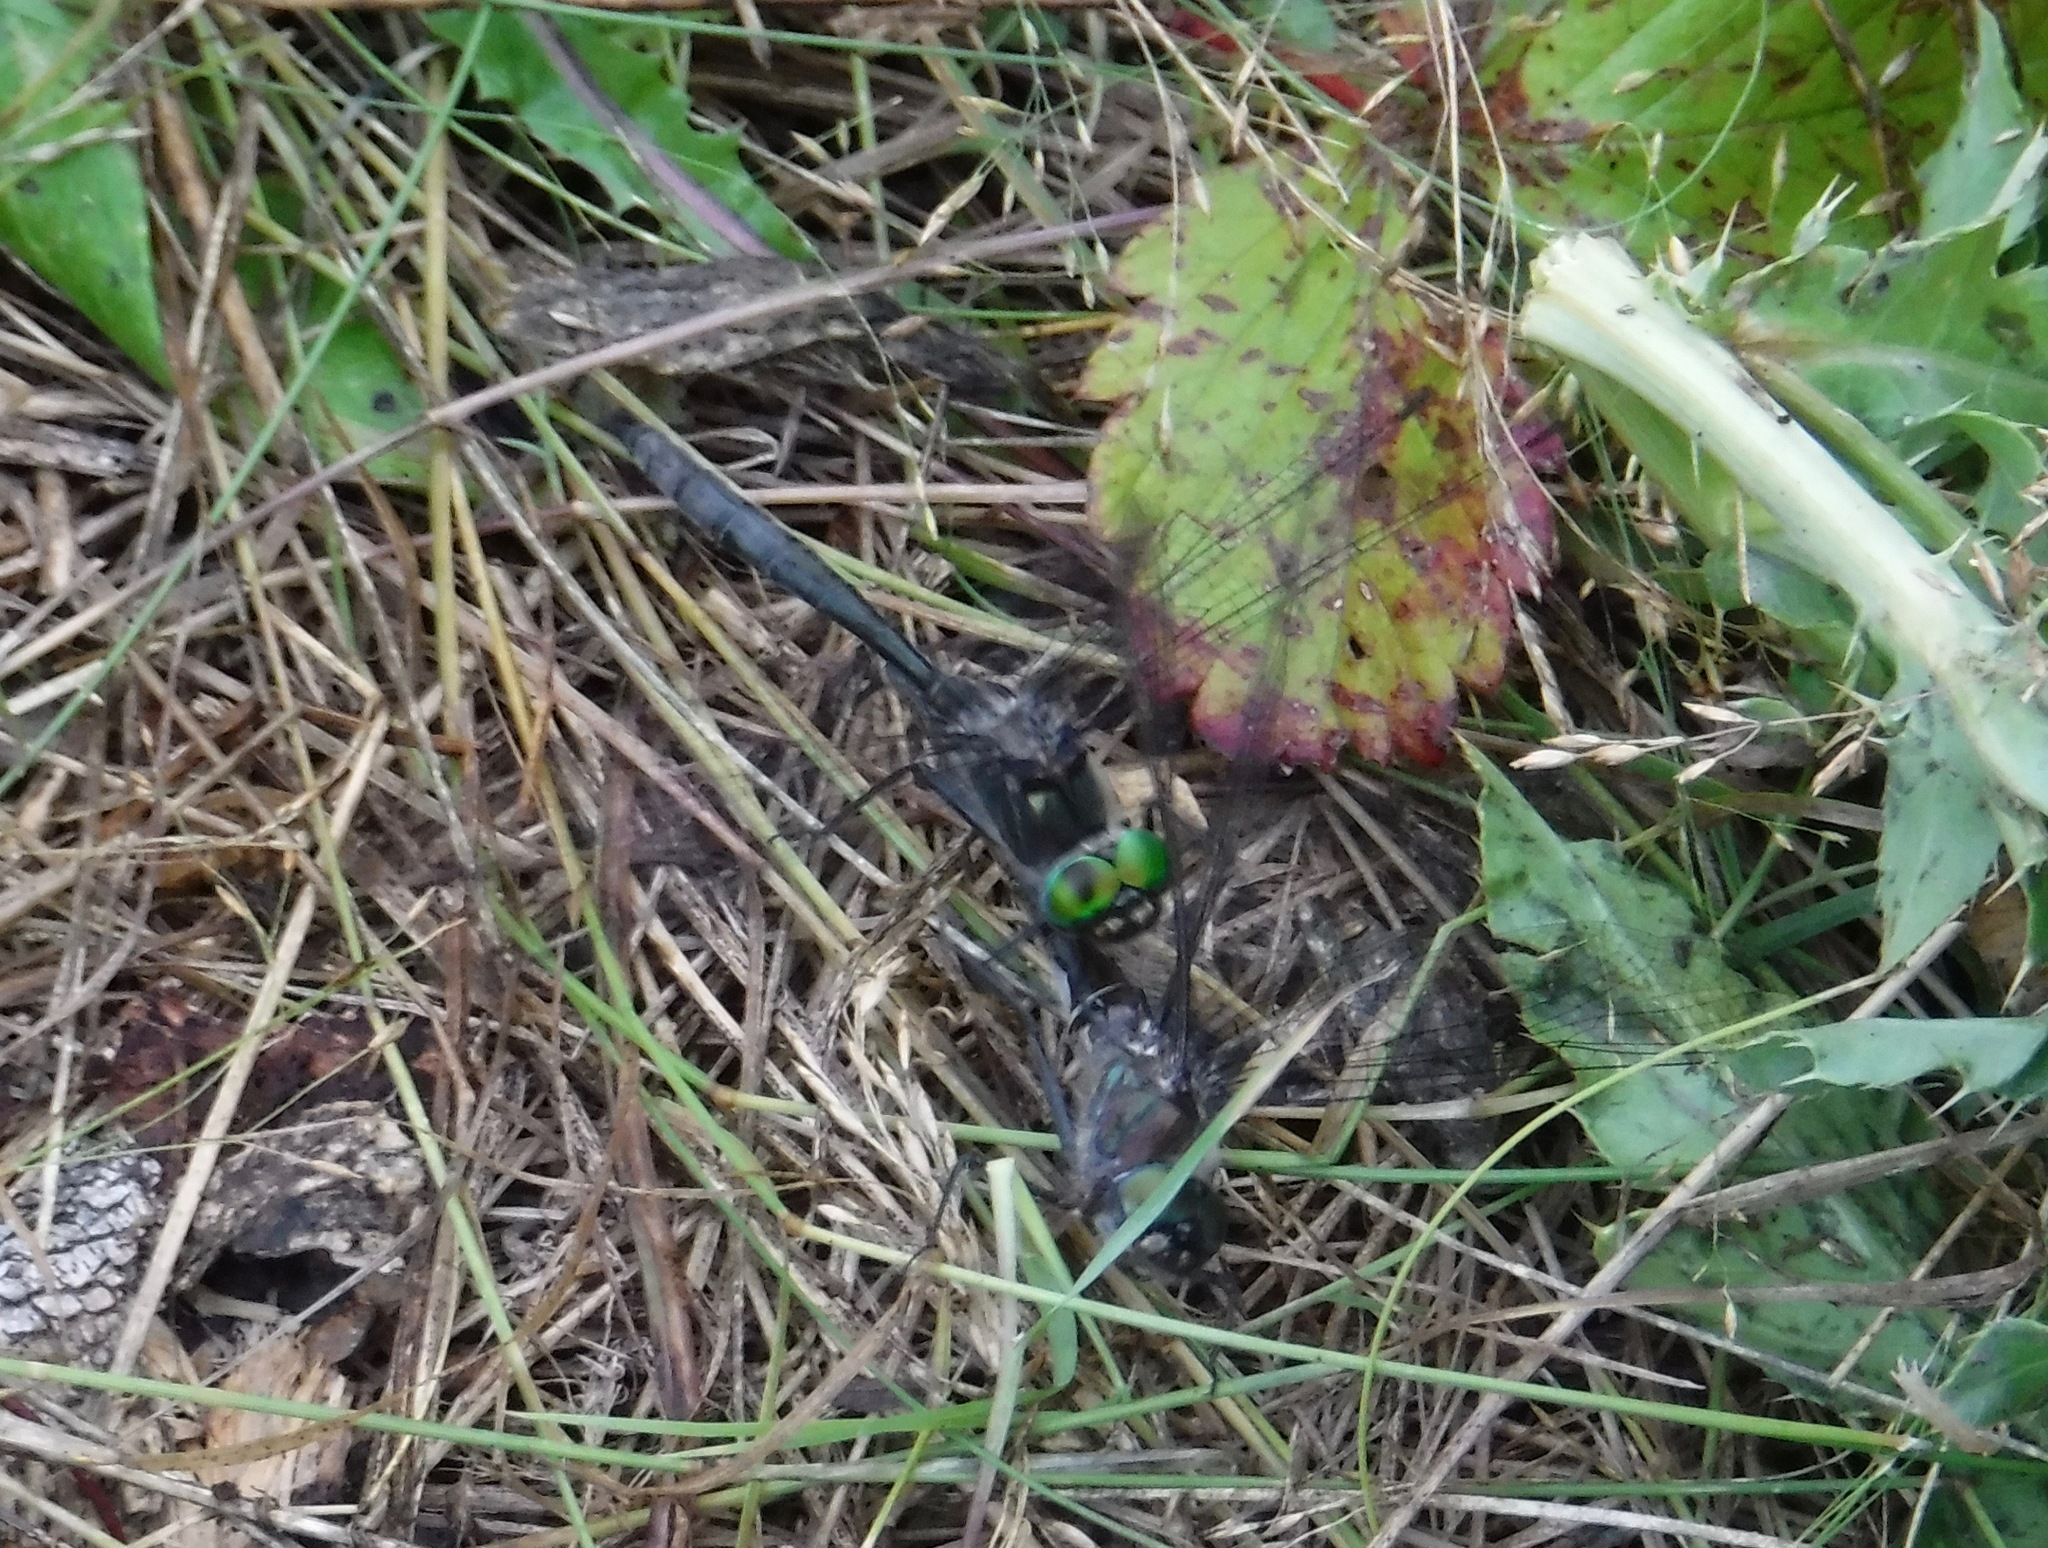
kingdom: Animalia
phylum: Arthropoda
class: Insecta
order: Odonata
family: Corduliidae
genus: Cordulia
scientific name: Cordulia shurtleffii
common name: American emerald
